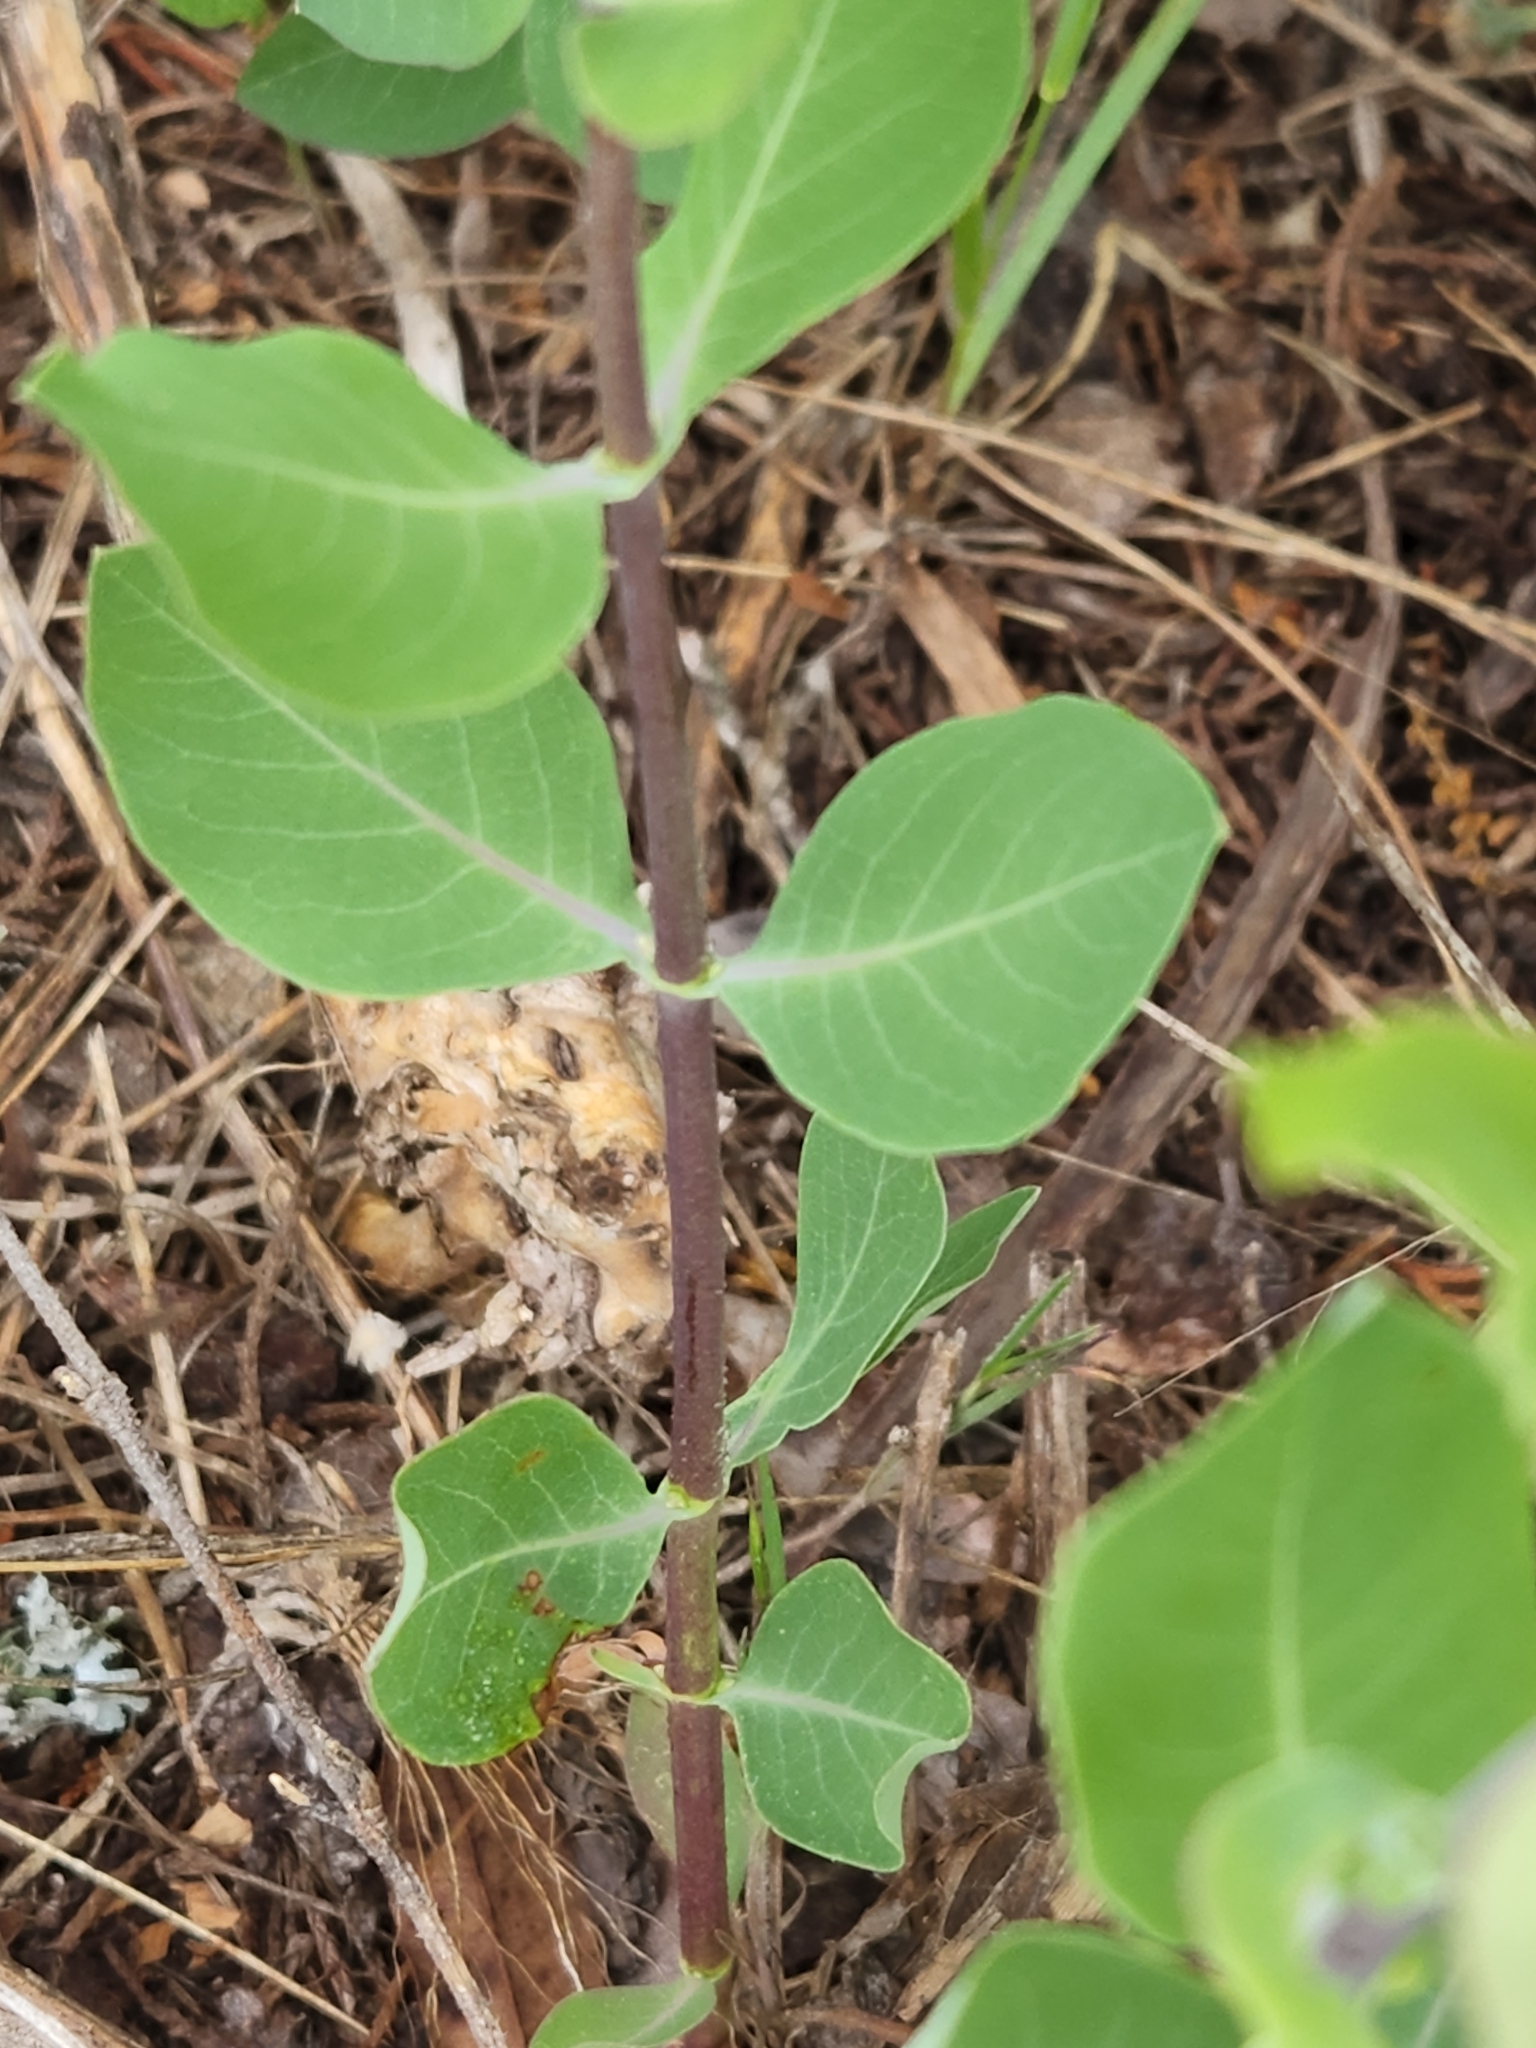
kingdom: Plantae
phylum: Tracheophyta
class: Magnoliopsida
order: Dipsacales
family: Caprifoliaceae
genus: Lonicera
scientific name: Lonicera albiflora
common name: White honeysuckle
